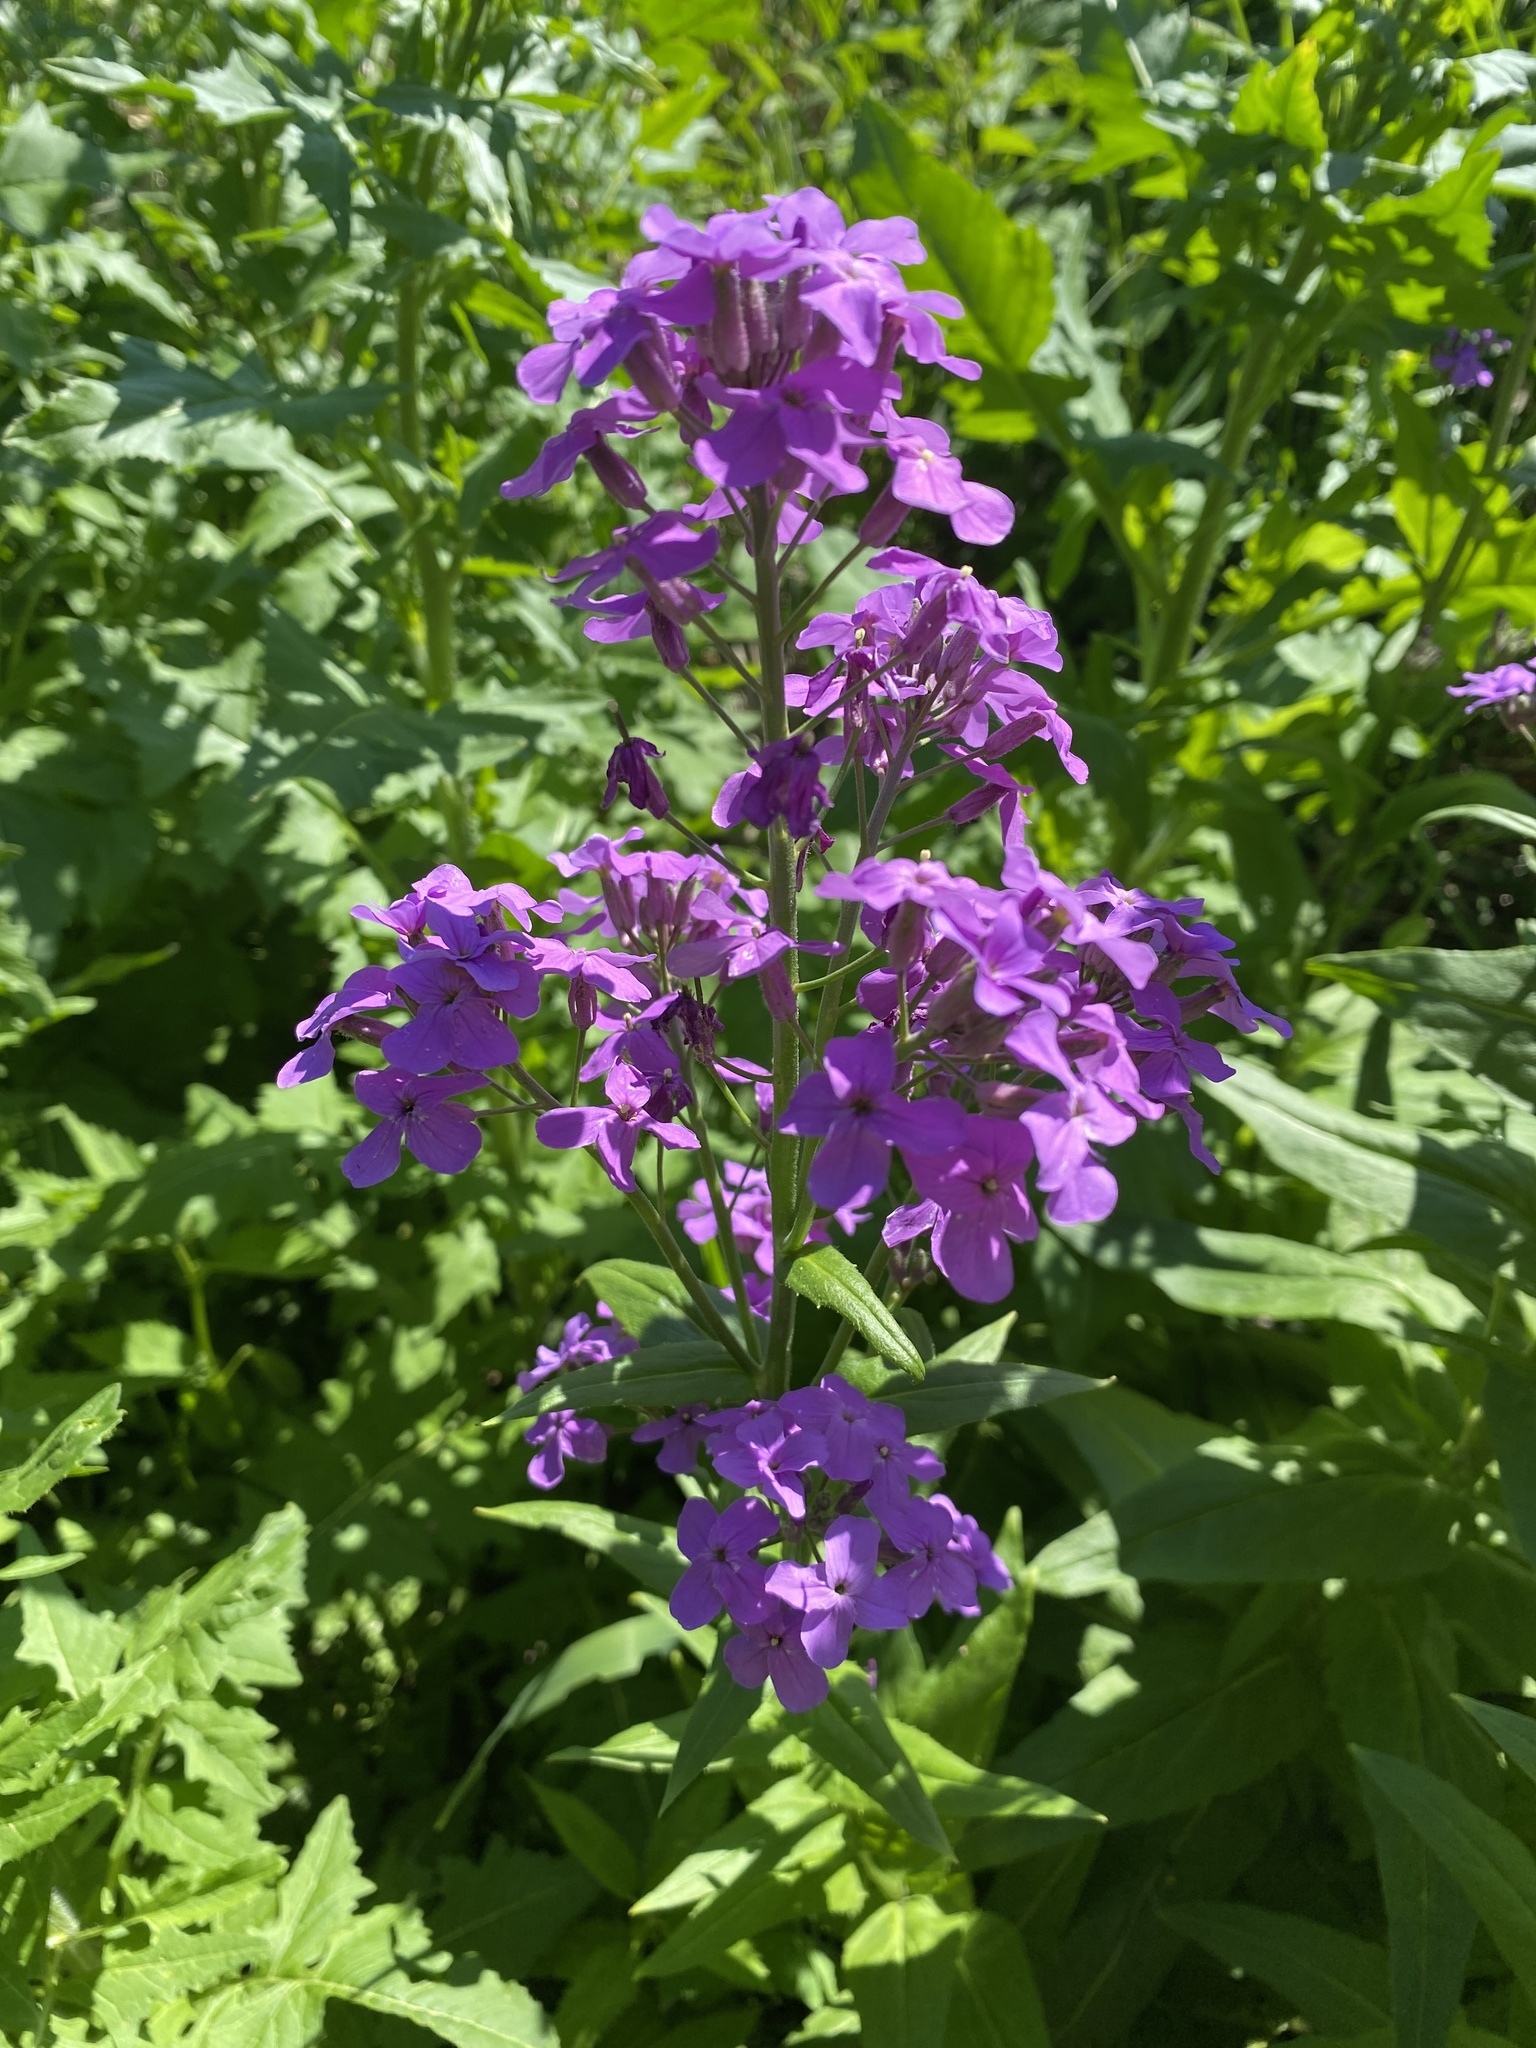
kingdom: Plantae
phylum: Tracheophyta
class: Magnoliopsida
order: Brassicales
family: Brassicaceae
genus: Hesperis
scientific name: Hesperis matronalis
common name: Dame's-violet
